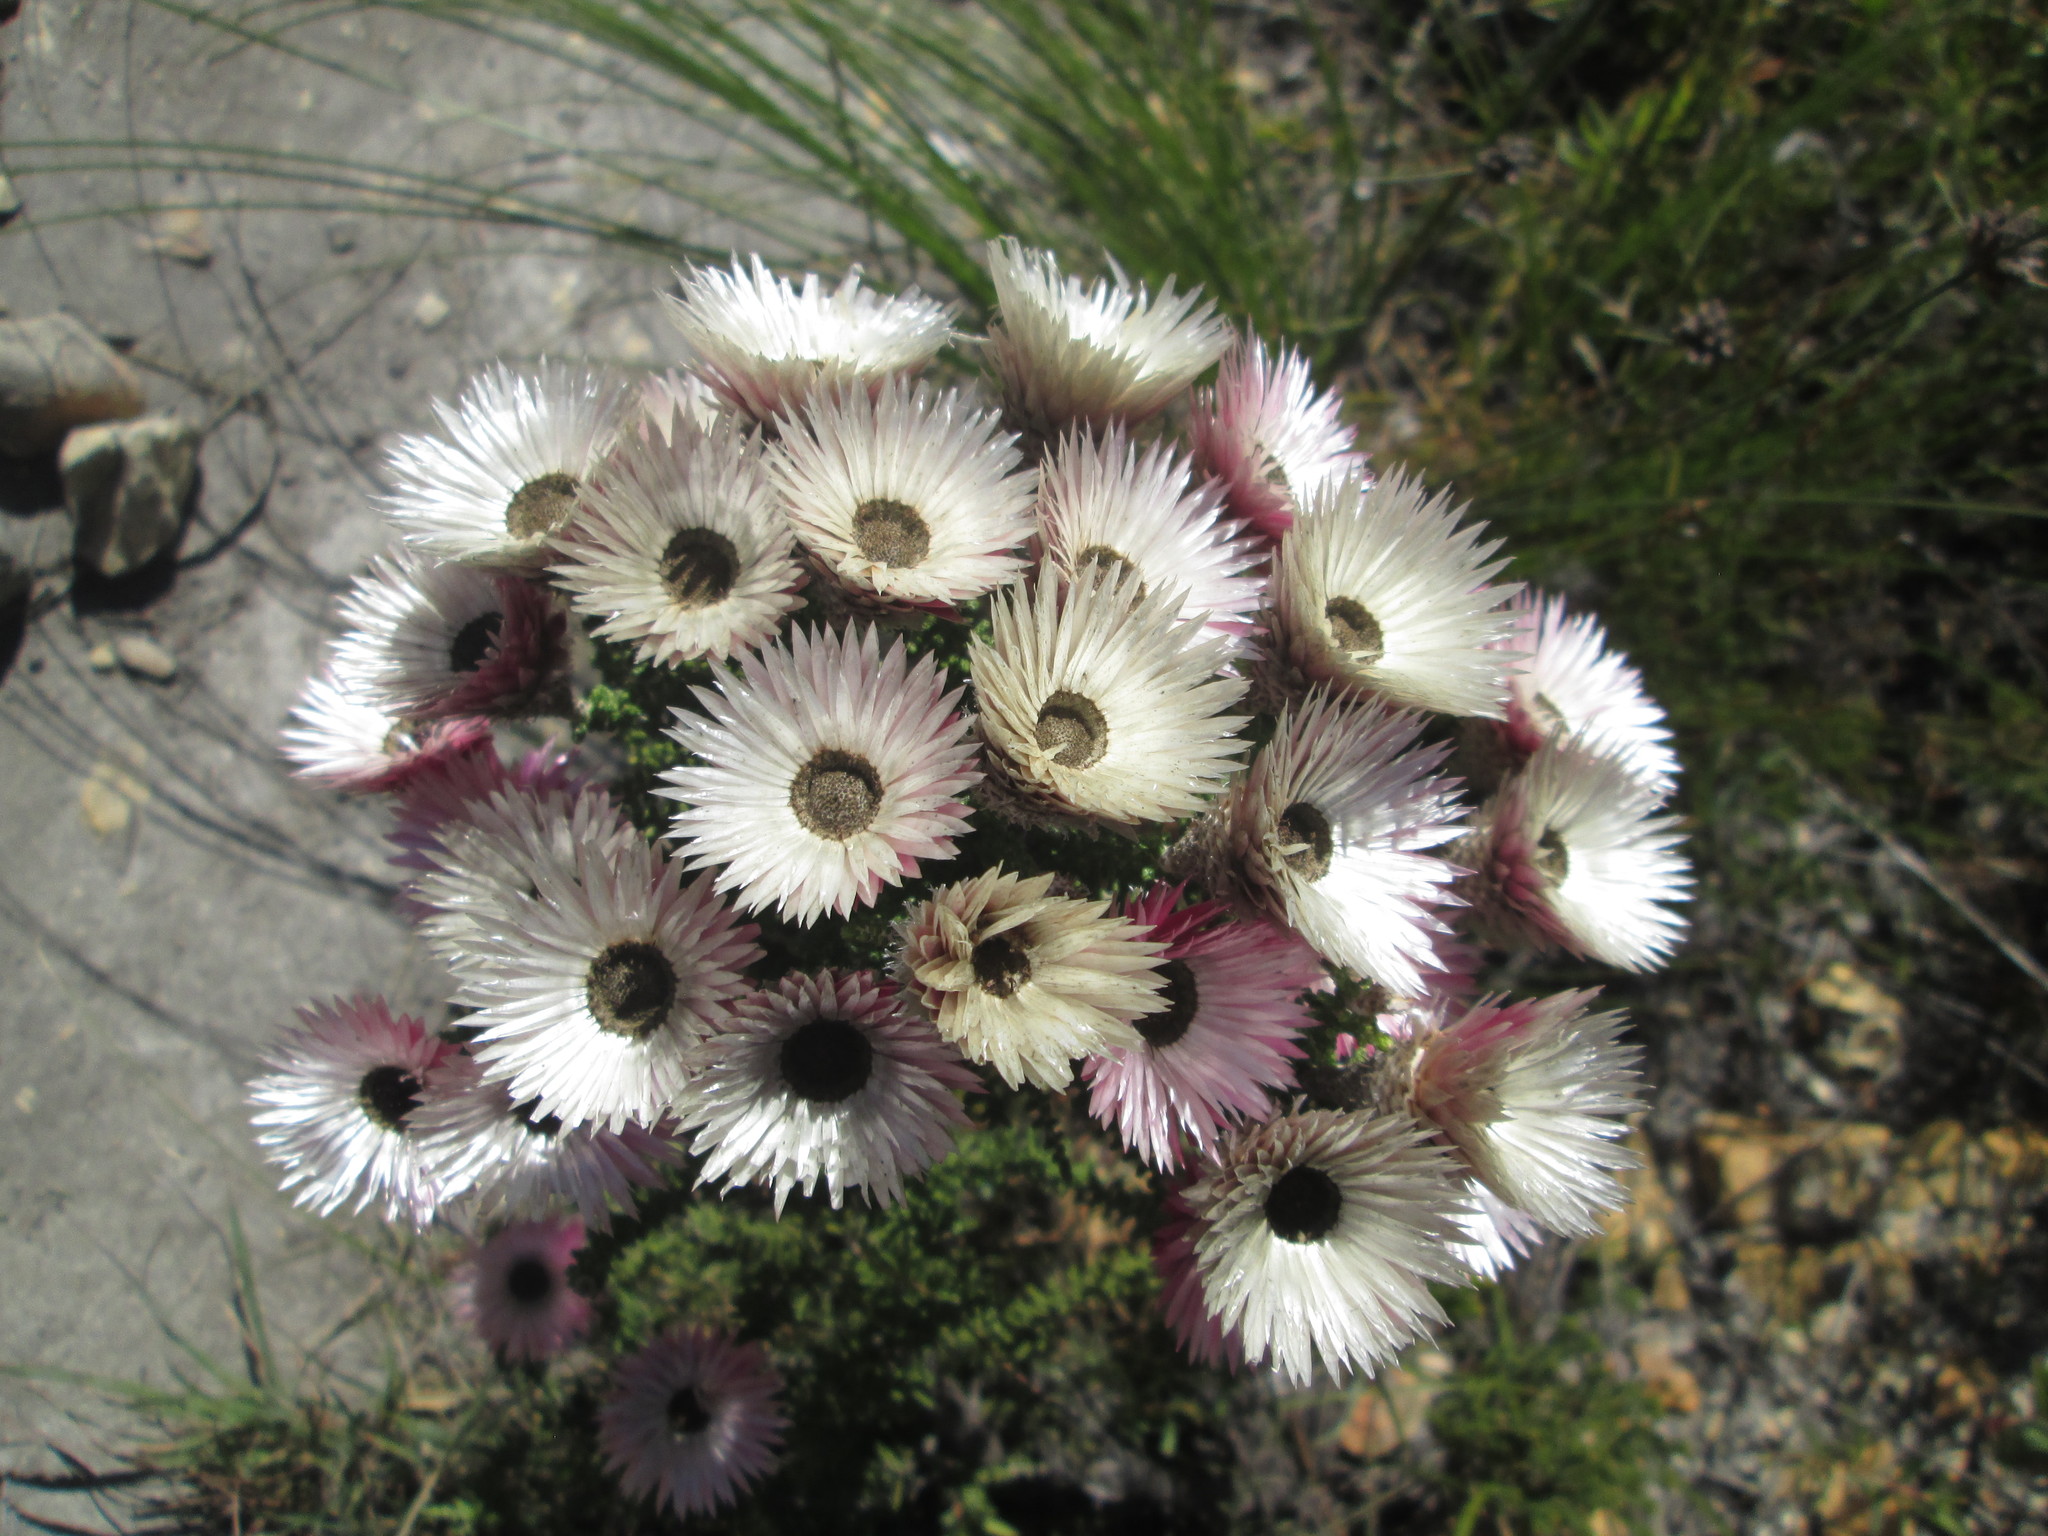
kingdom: Plantae
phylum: Tracheophyta
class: Magnoliopsida
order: Asterales
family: Asteraceae
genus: Phaenocoma
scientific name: Phaenocoma prolifera
